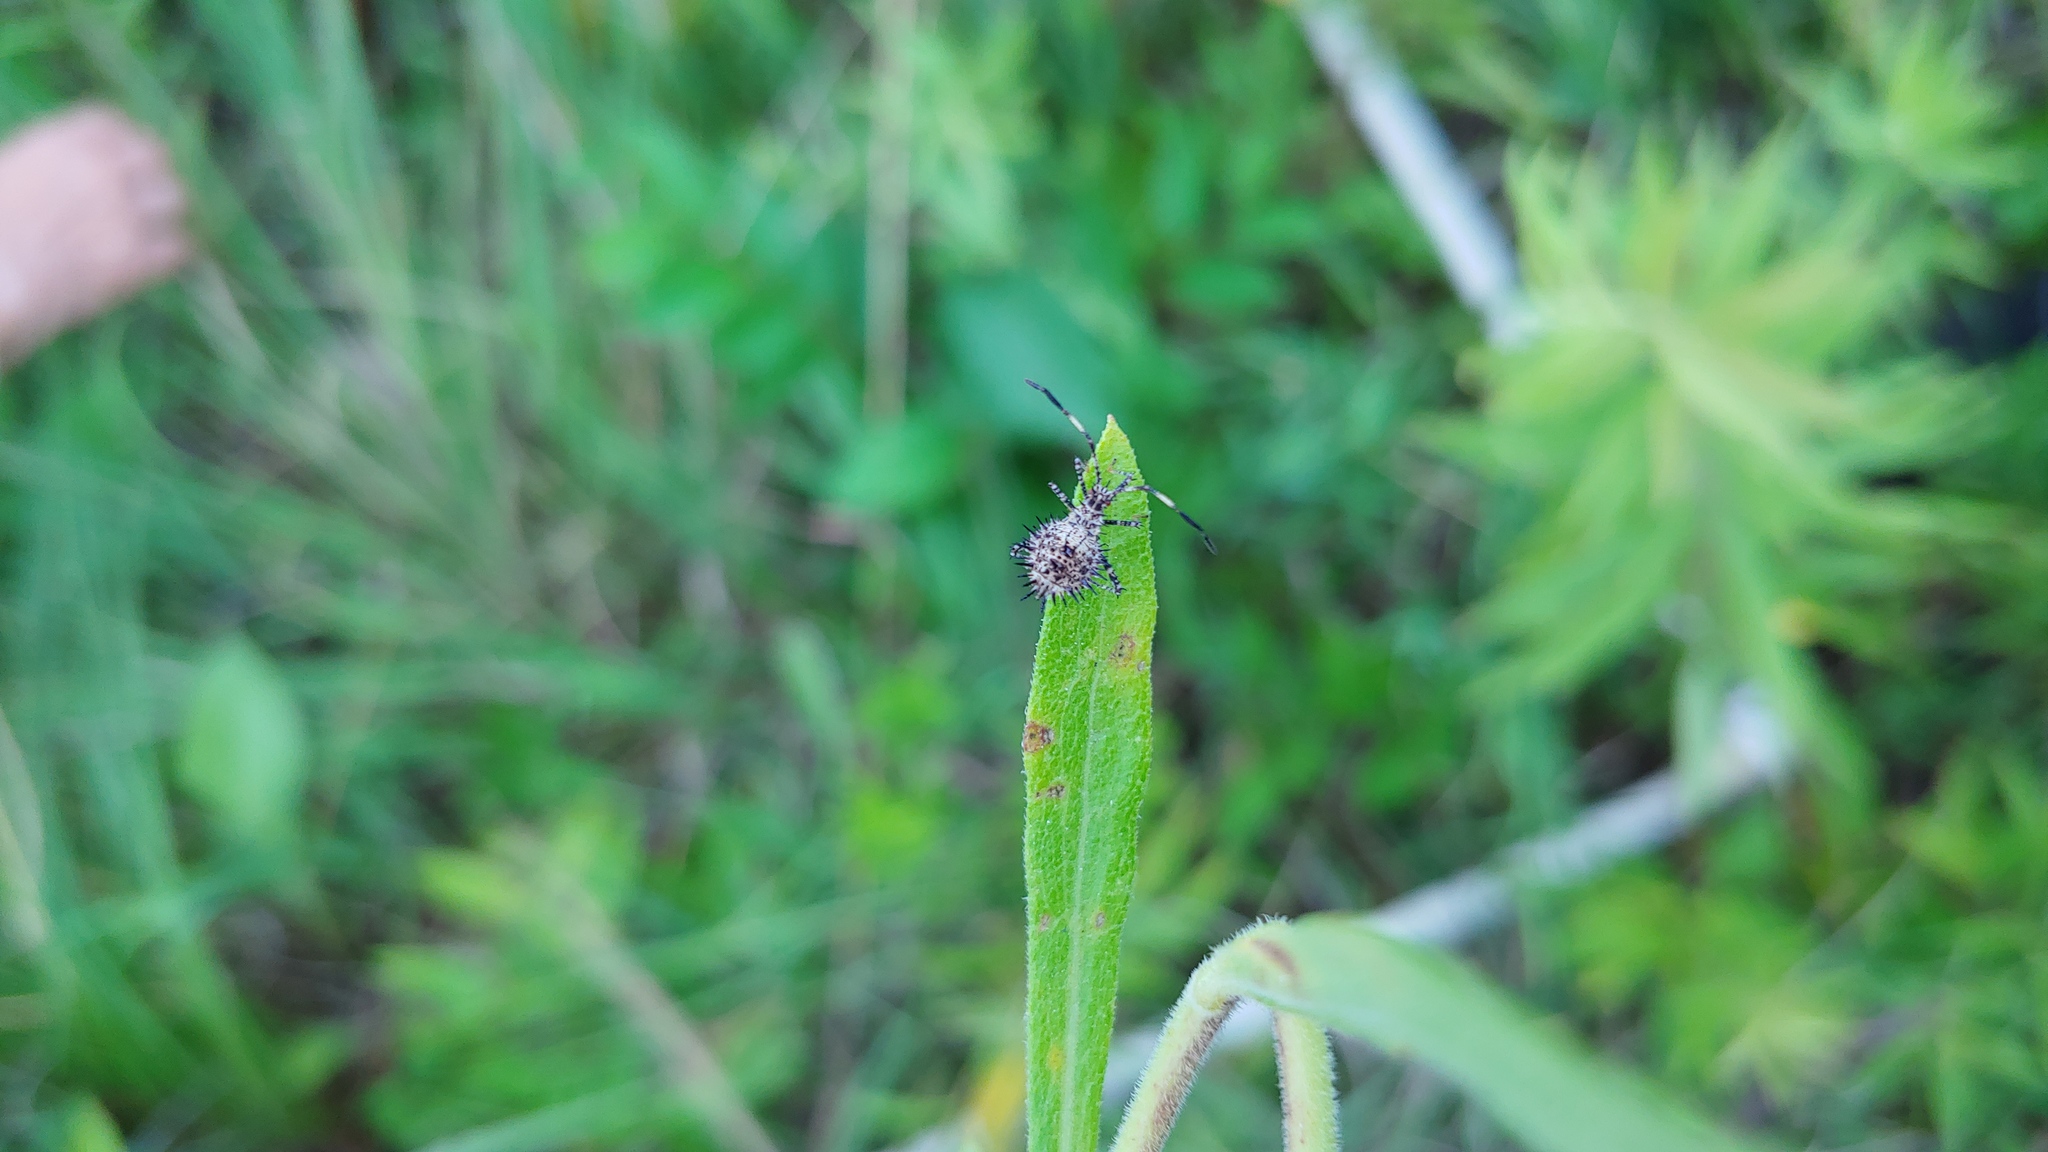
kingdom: Animalia
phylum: Arthropoda
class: Insecta
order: Hemiptera
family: Coreidae
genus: Euthochtha
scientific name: Euthochtha galeator
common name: Helmeted squash bug
